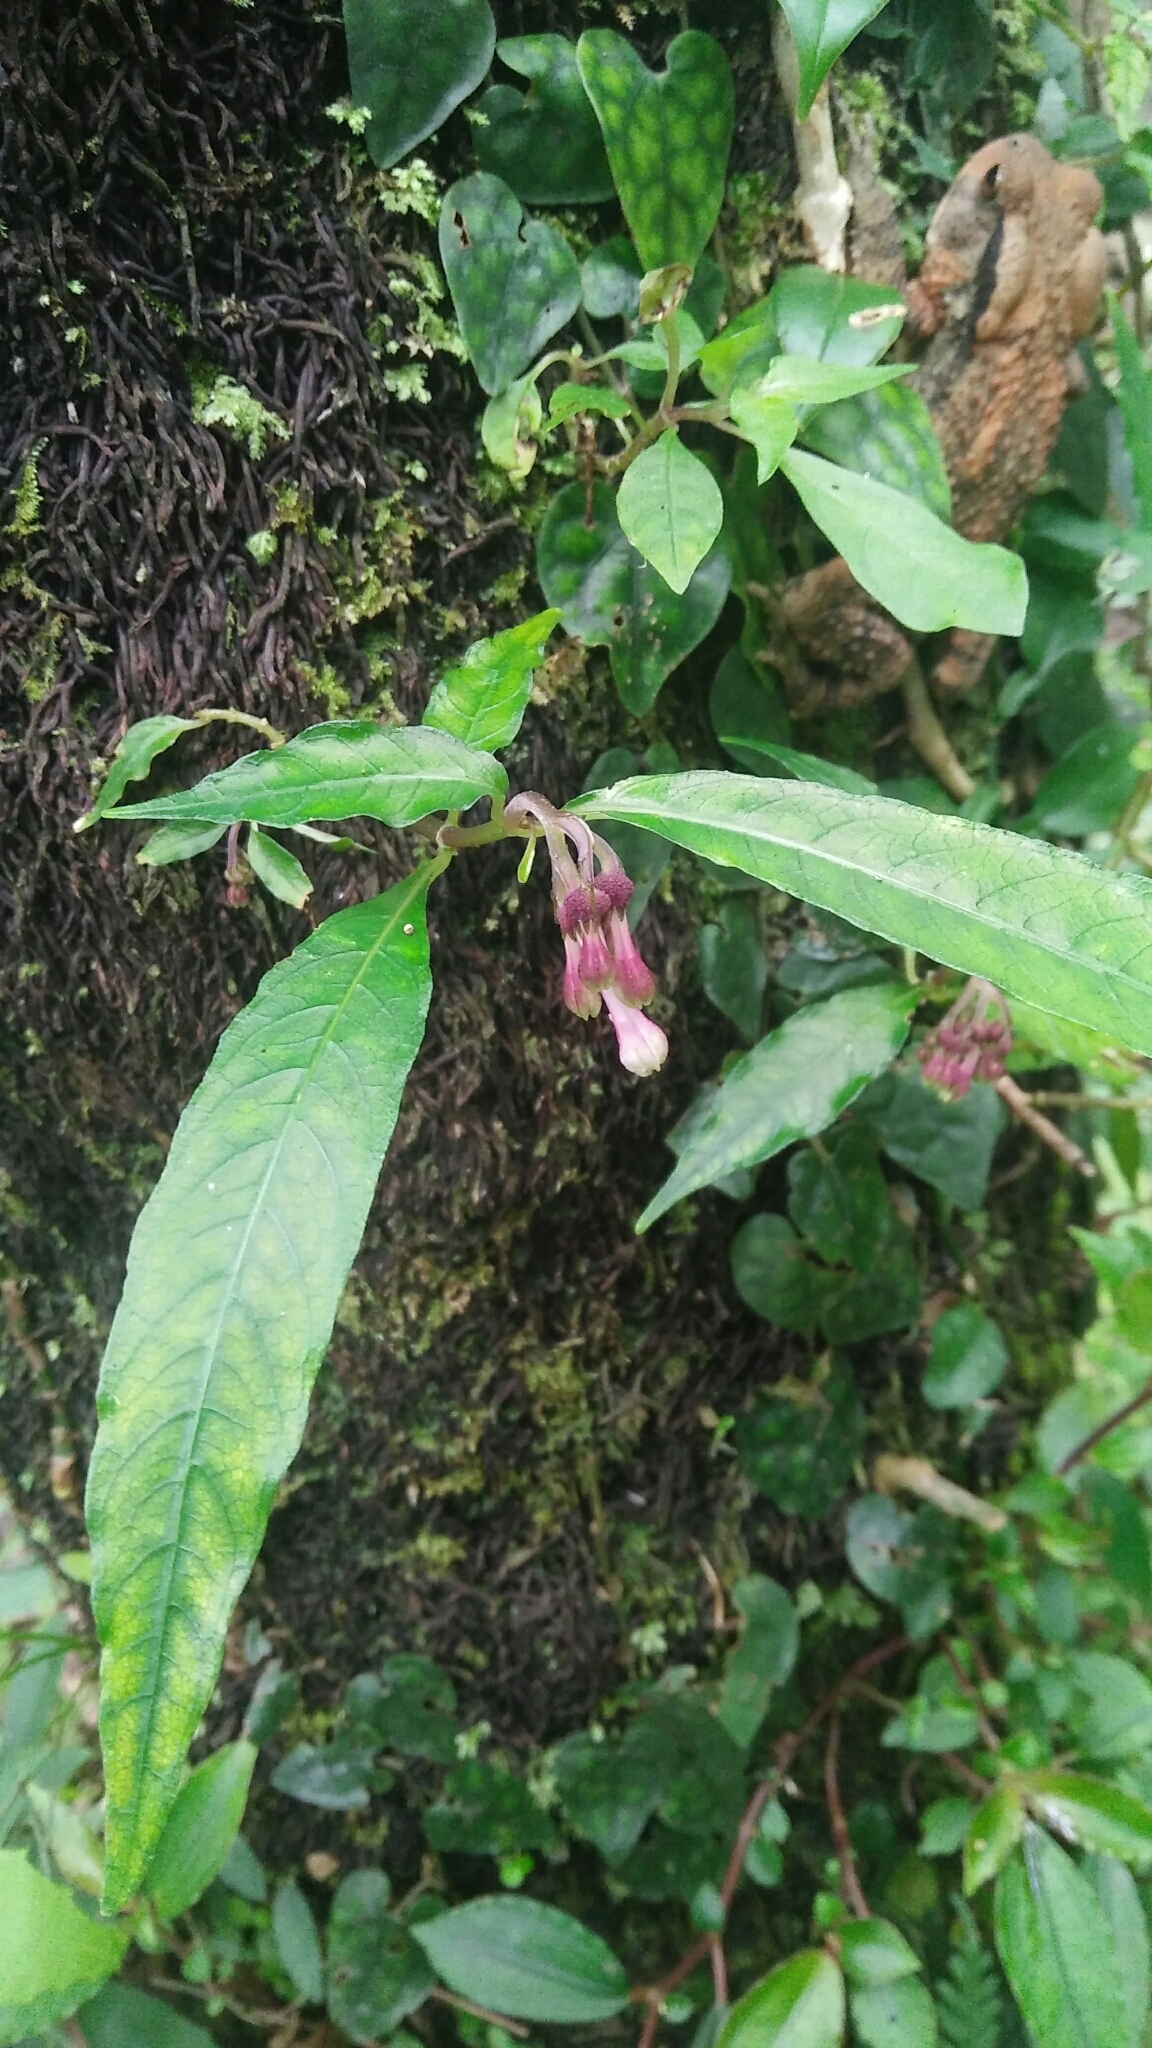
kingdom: Plantae
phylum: Tracheophyta
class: Magnoliopsida
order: Gentianales
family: Rubiaceae
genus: Ophiorrhiza
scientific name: Ophiorrhiza hayatana
